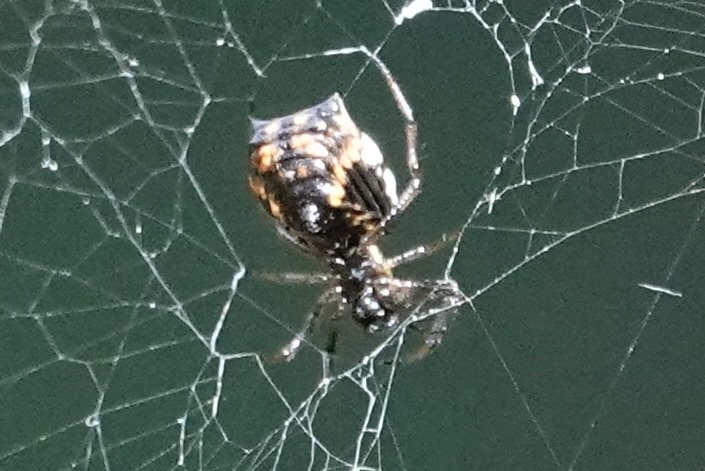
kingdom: Animalia
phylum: Arthropoda
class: Arachnida
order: Araneae
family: Araneidae
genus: Micrathena
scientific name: Micrathena mitrata
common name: Orb weavers
